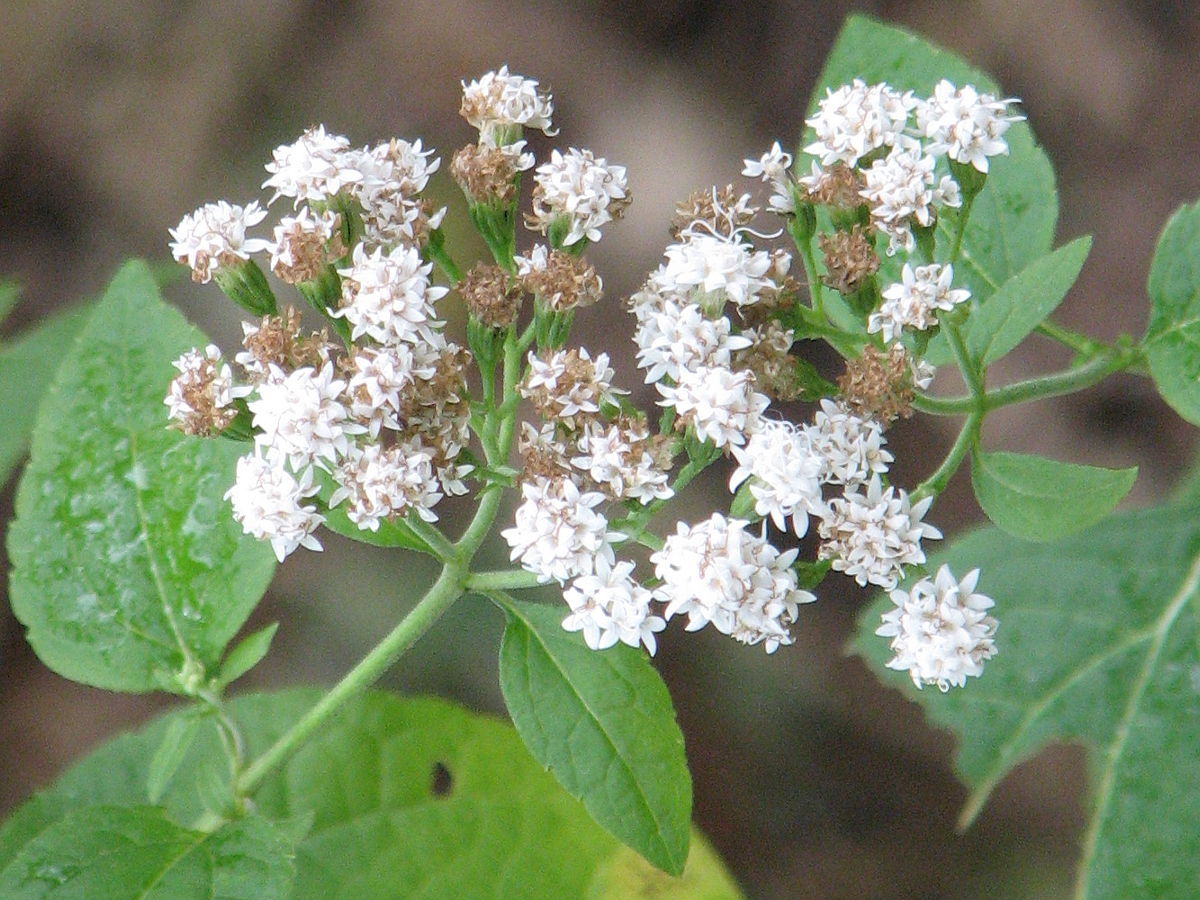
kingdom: Plantae
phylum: Tracheophyta
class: Magnoliopsida
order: Asterales
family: Asteraceae
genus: Ageratina
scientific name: Ageratina altissima
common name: White snakeroot
